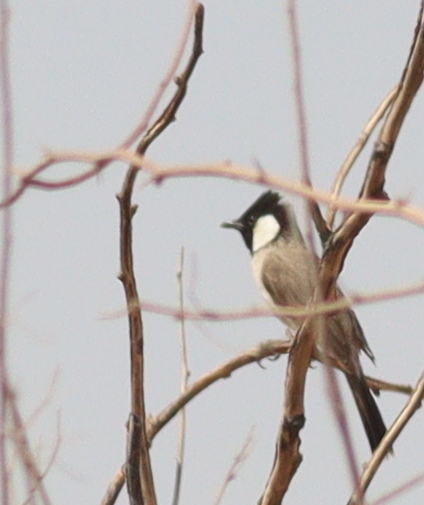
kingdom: Animalia
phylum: Chordata
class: Aves
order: Passeriformes
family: Pycnonotidae
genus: Pycnonotus
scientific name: Pycnonotus leucotis
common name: White-eared bulbul
